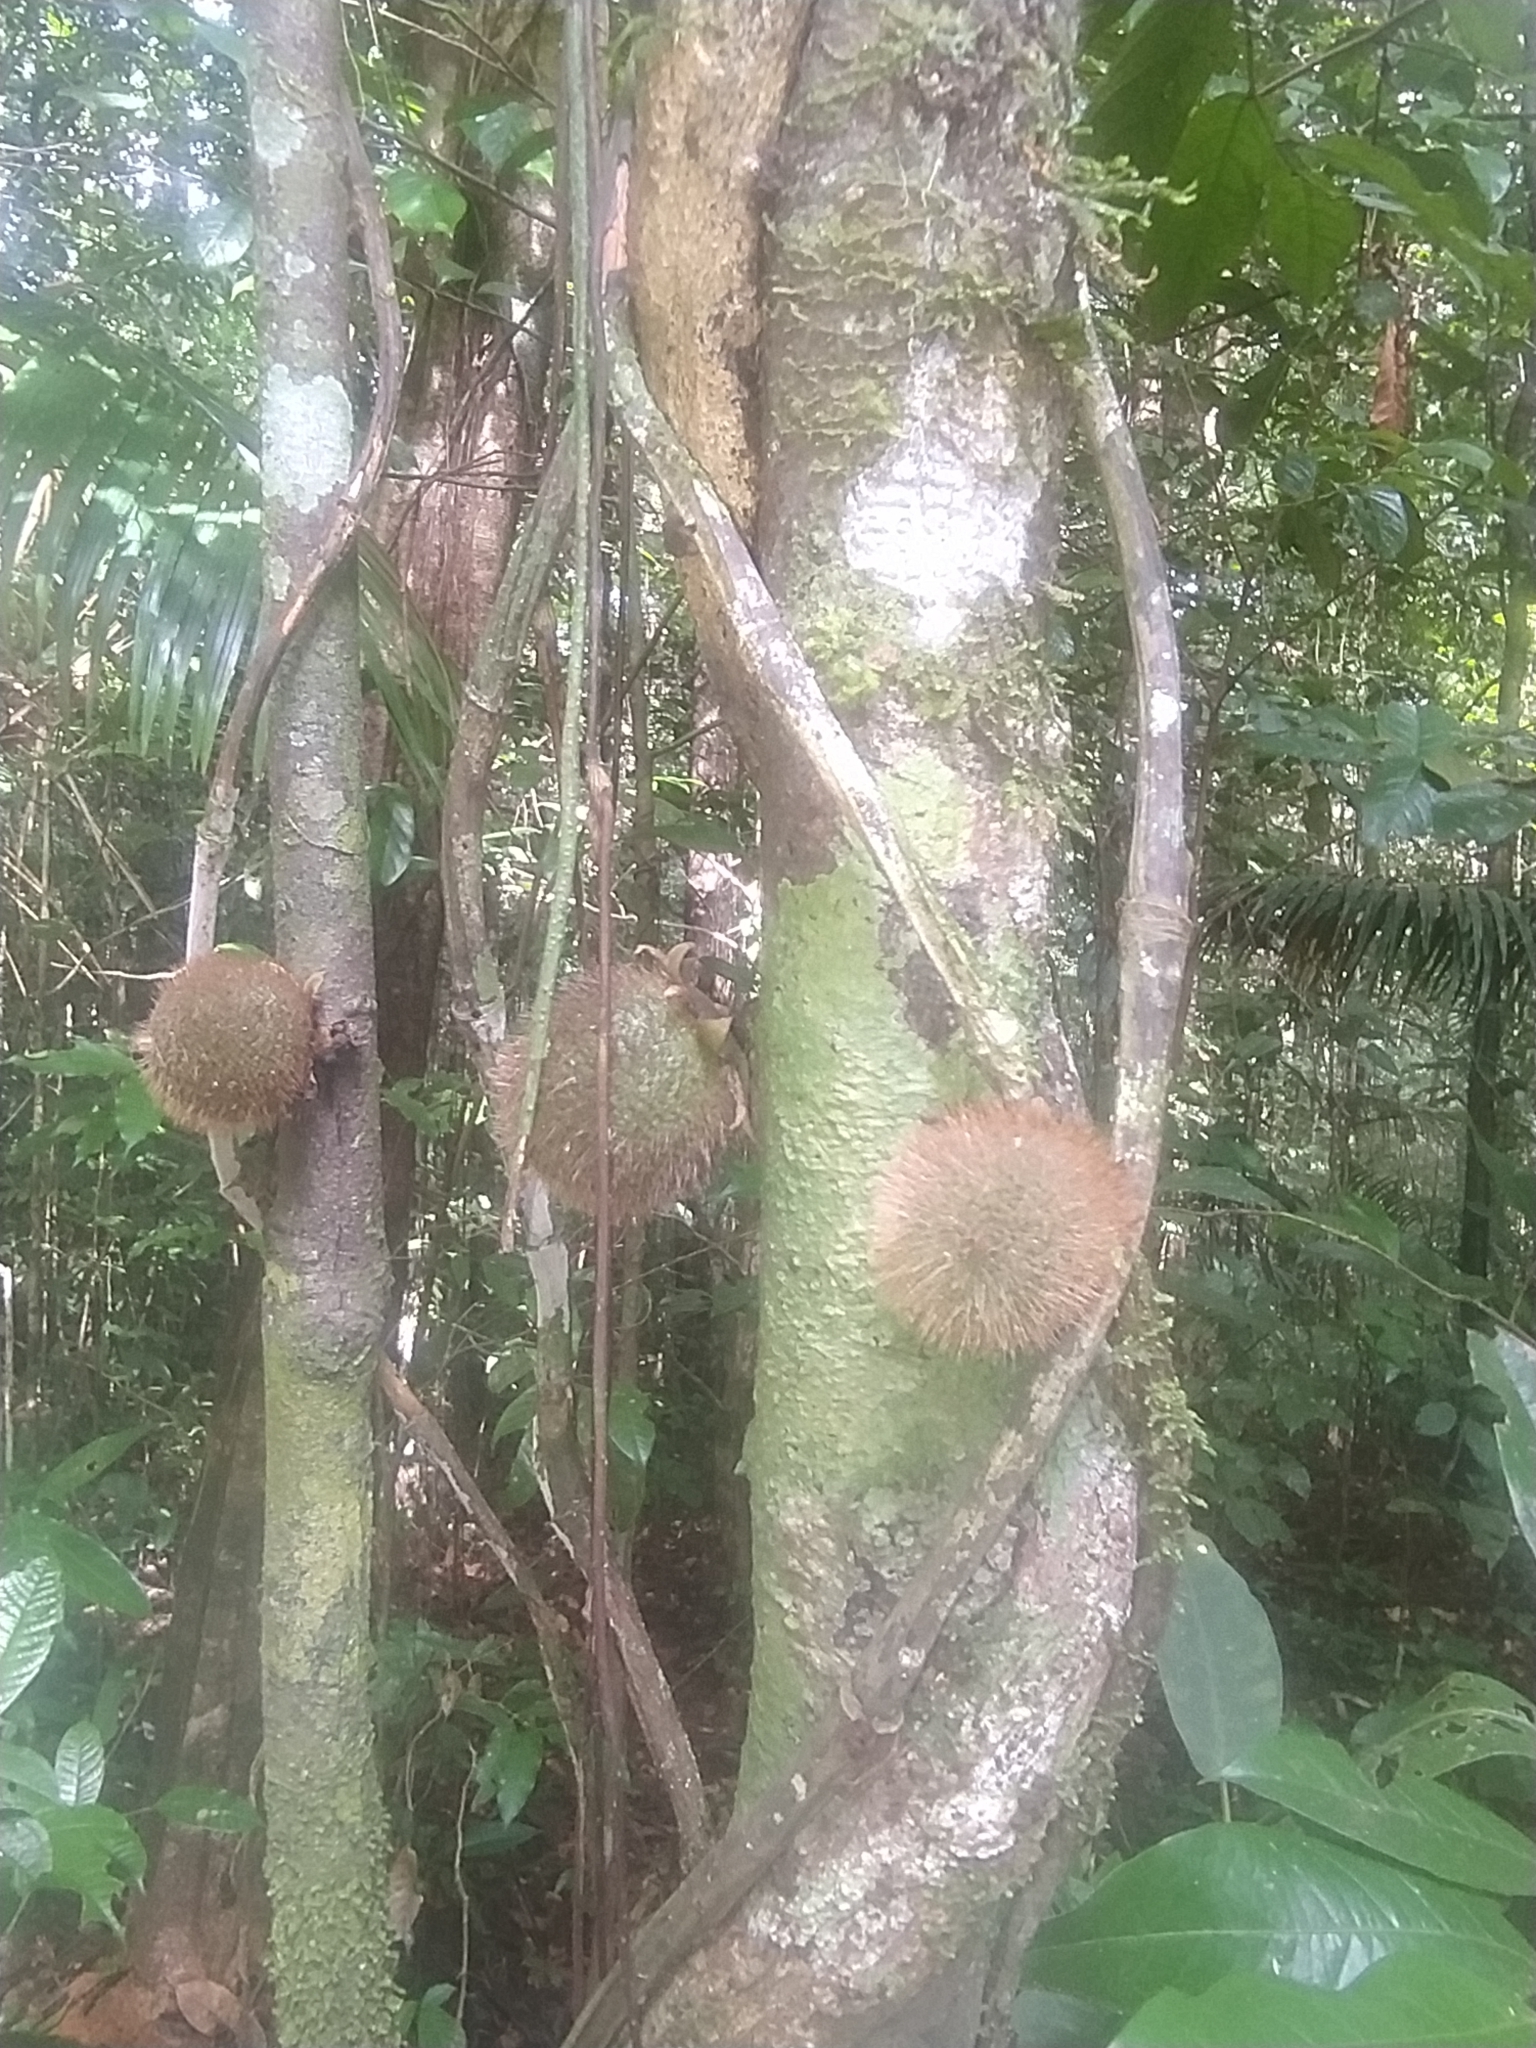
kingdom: Plantae
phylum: Tracheophyta
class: Magnoliopsida
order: Ericales
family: Ebenaceae
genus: Diospyros
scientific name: Diospyros ropourea
